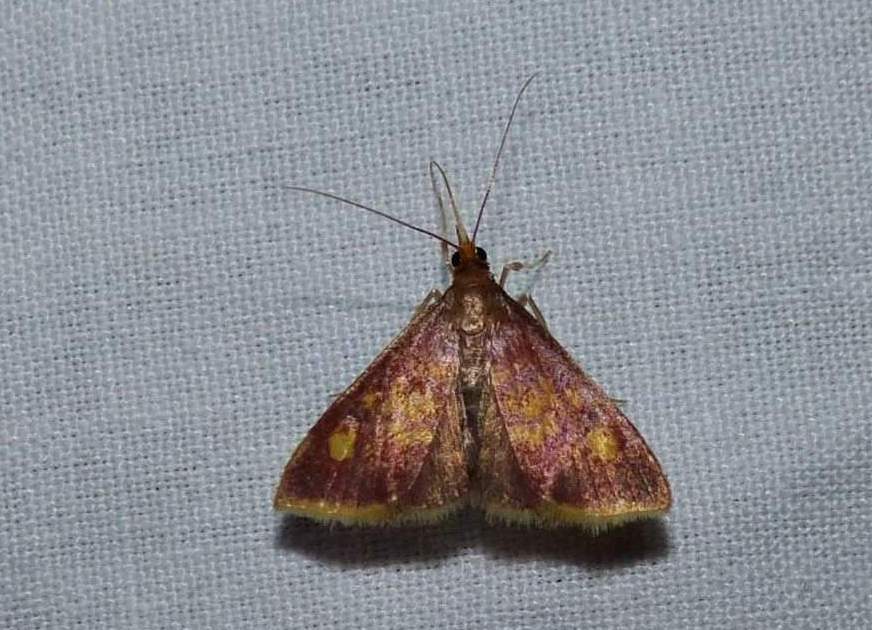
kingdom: Animalia
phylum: Arthropoda
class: Insecta
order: Lepidoptera
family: Crambidae
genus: Pyrausta
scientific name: Pyrausta acrionalis
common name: Mint-loving pyrausta moth
